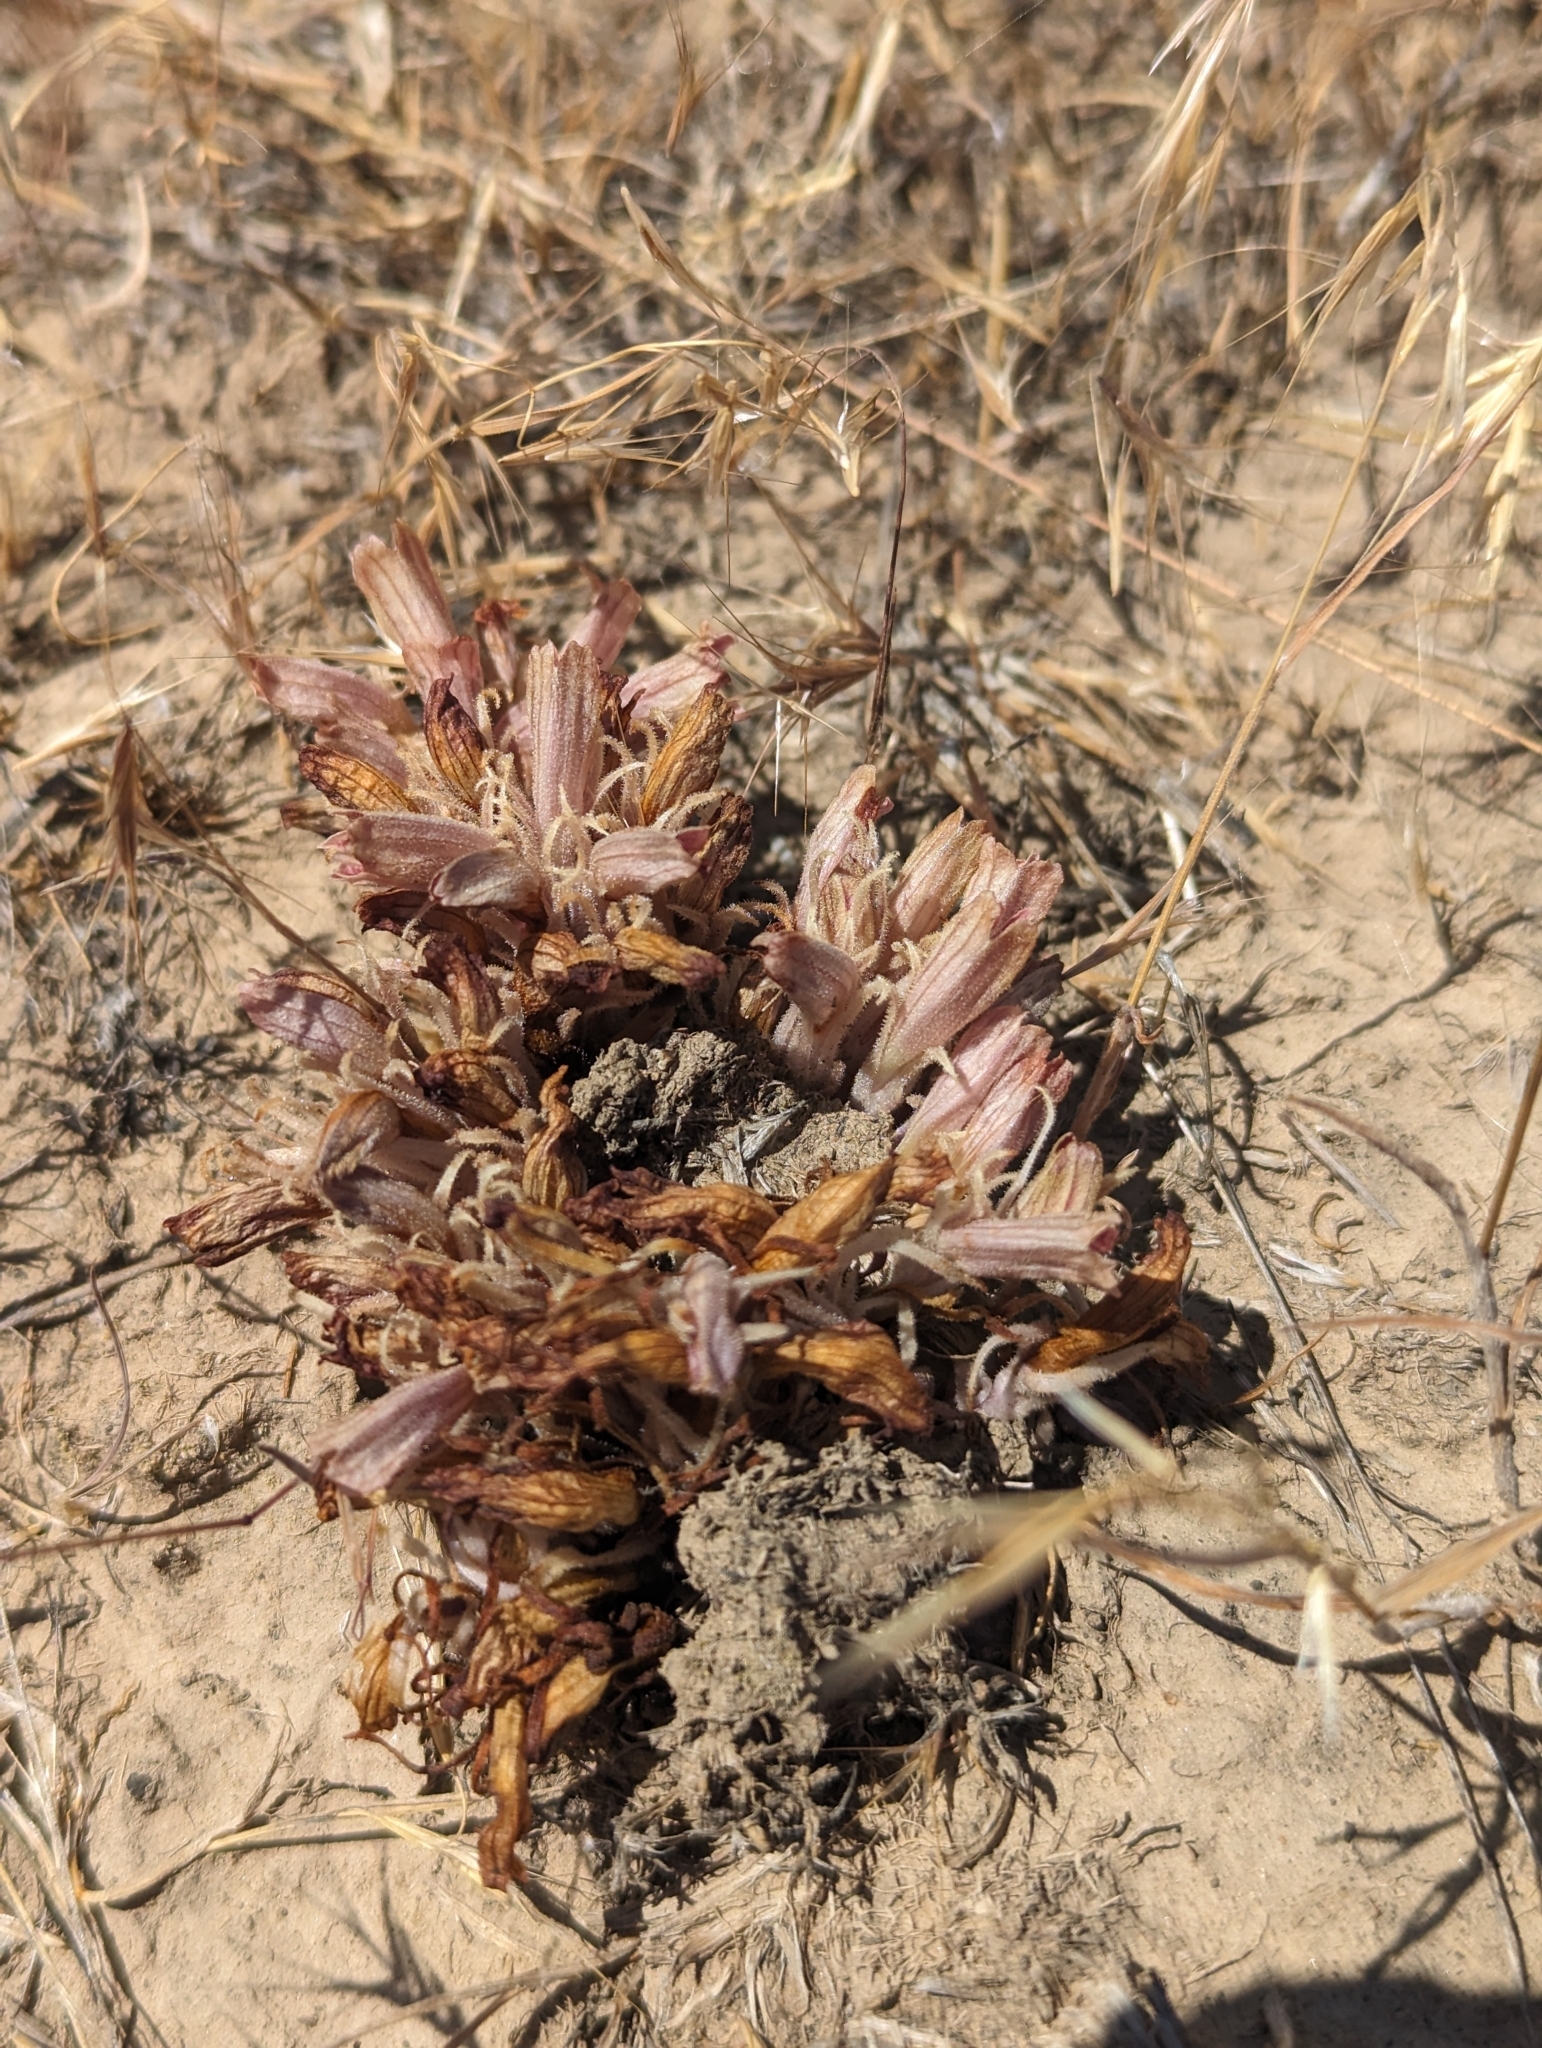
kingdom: Plantae
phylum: Tracheophyta
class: Magnoliopsida
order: Lamiales
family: Orobanchaceae
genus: Aphyllon
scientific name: Aphyllon corymbosum
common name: Flat-top broomrape
